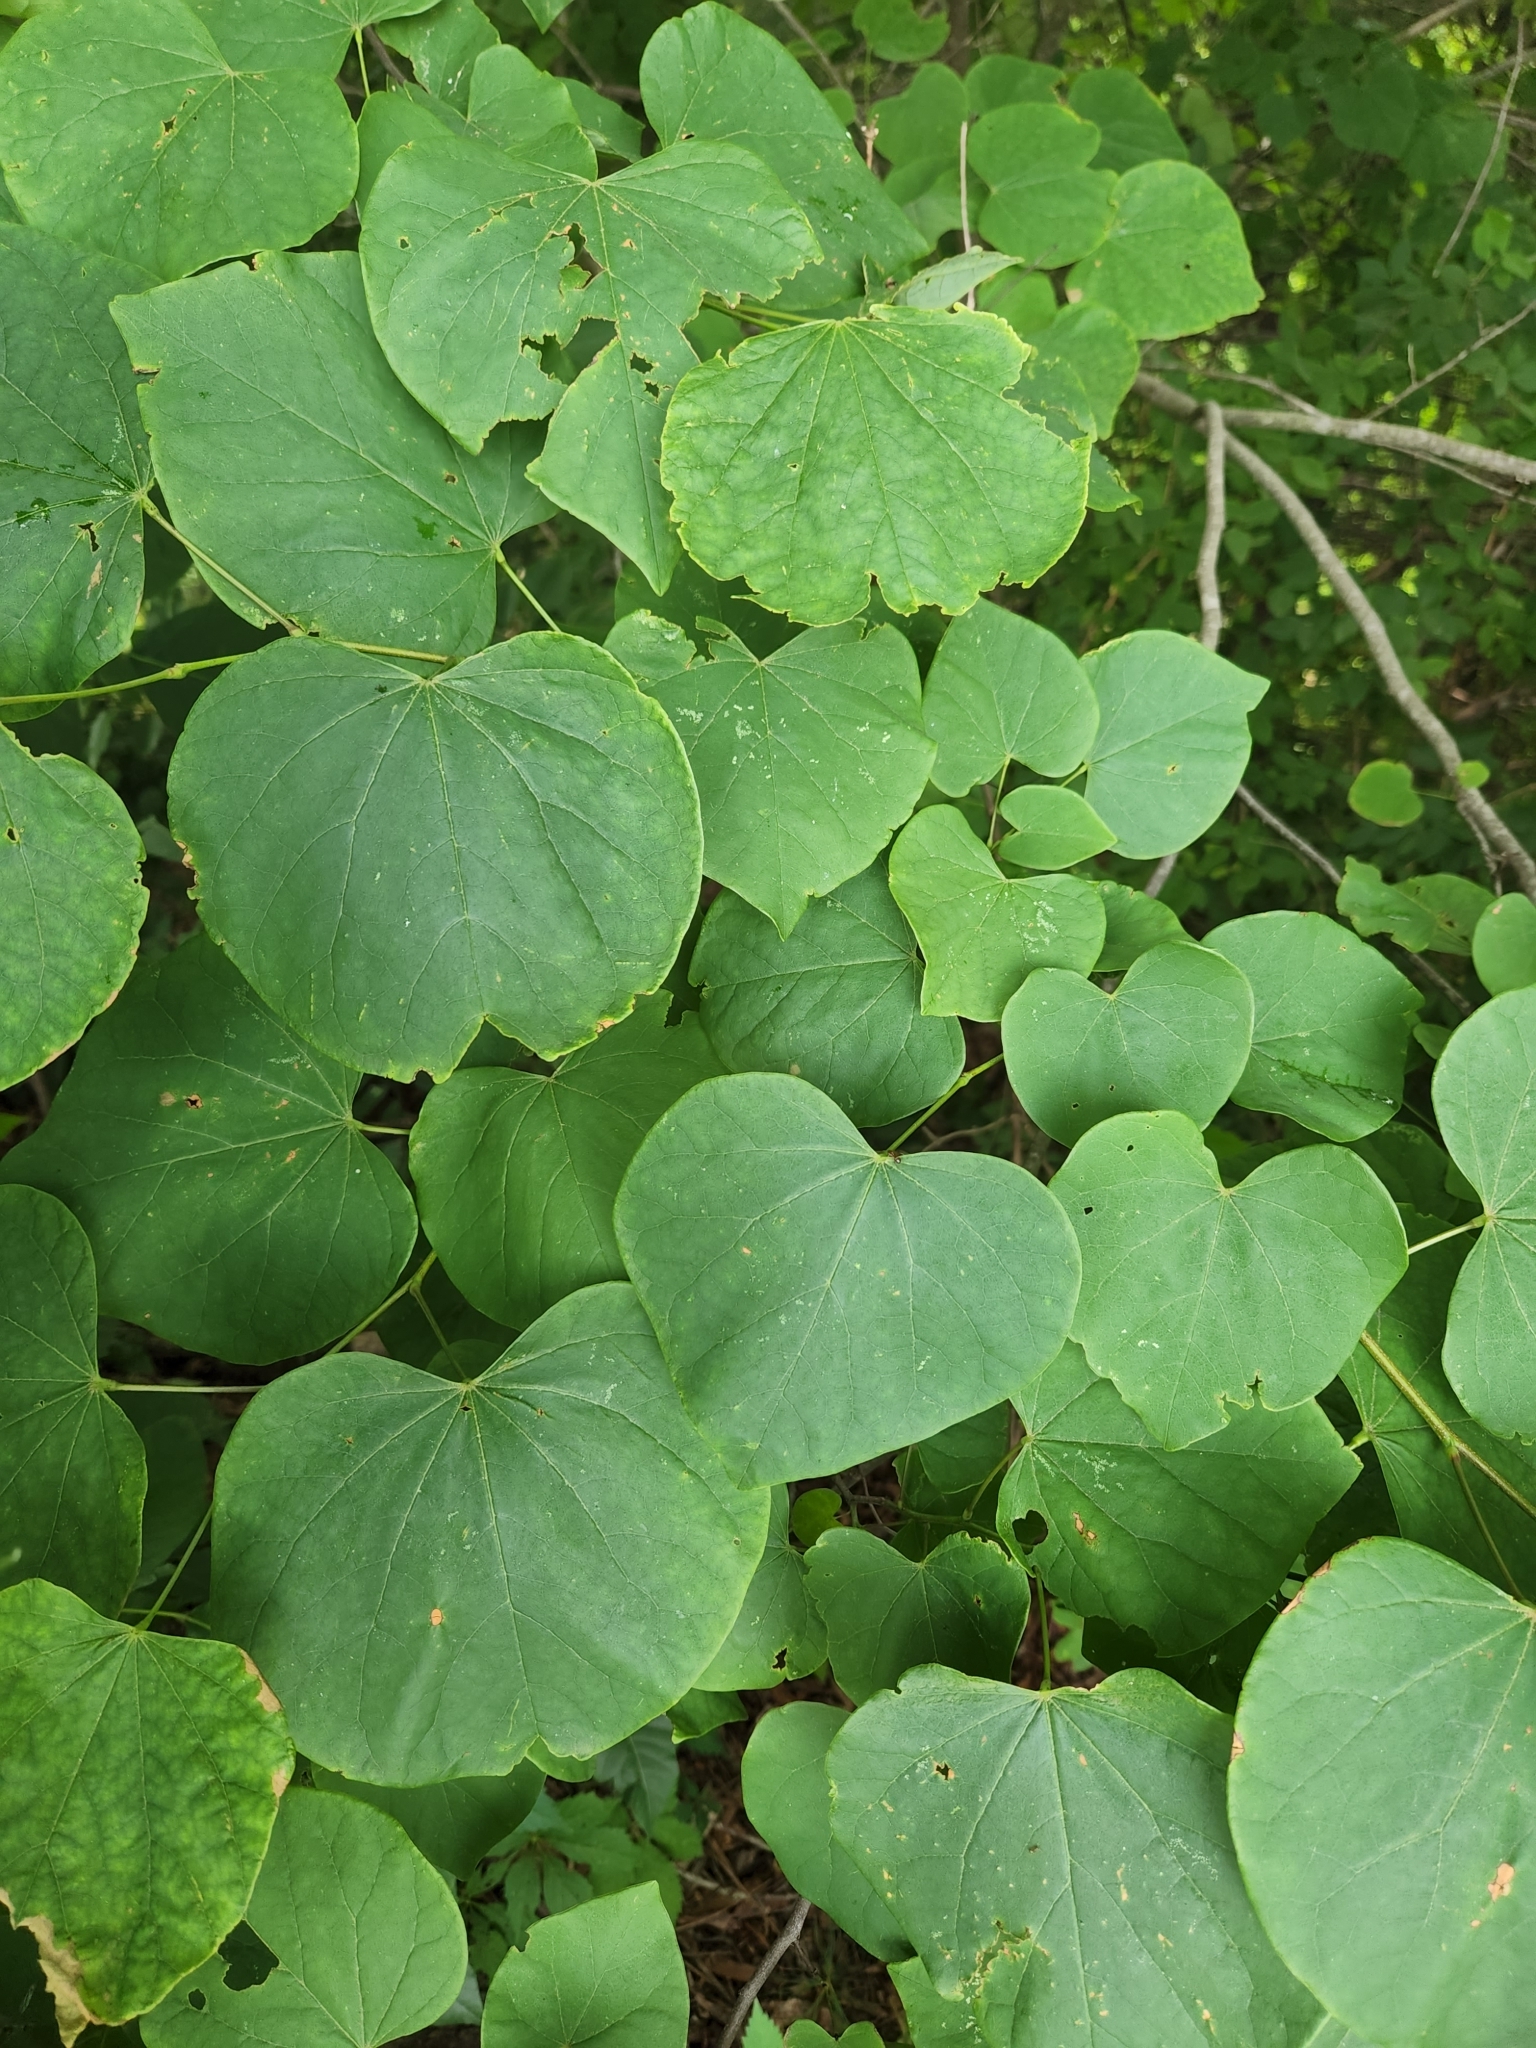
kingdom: Plantae
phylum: Tracheophyta
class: Magnoliopsida
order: Fabales
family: Fabaceae
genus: Cercis
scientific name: Cercis canadensis
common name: Eastern redbud
